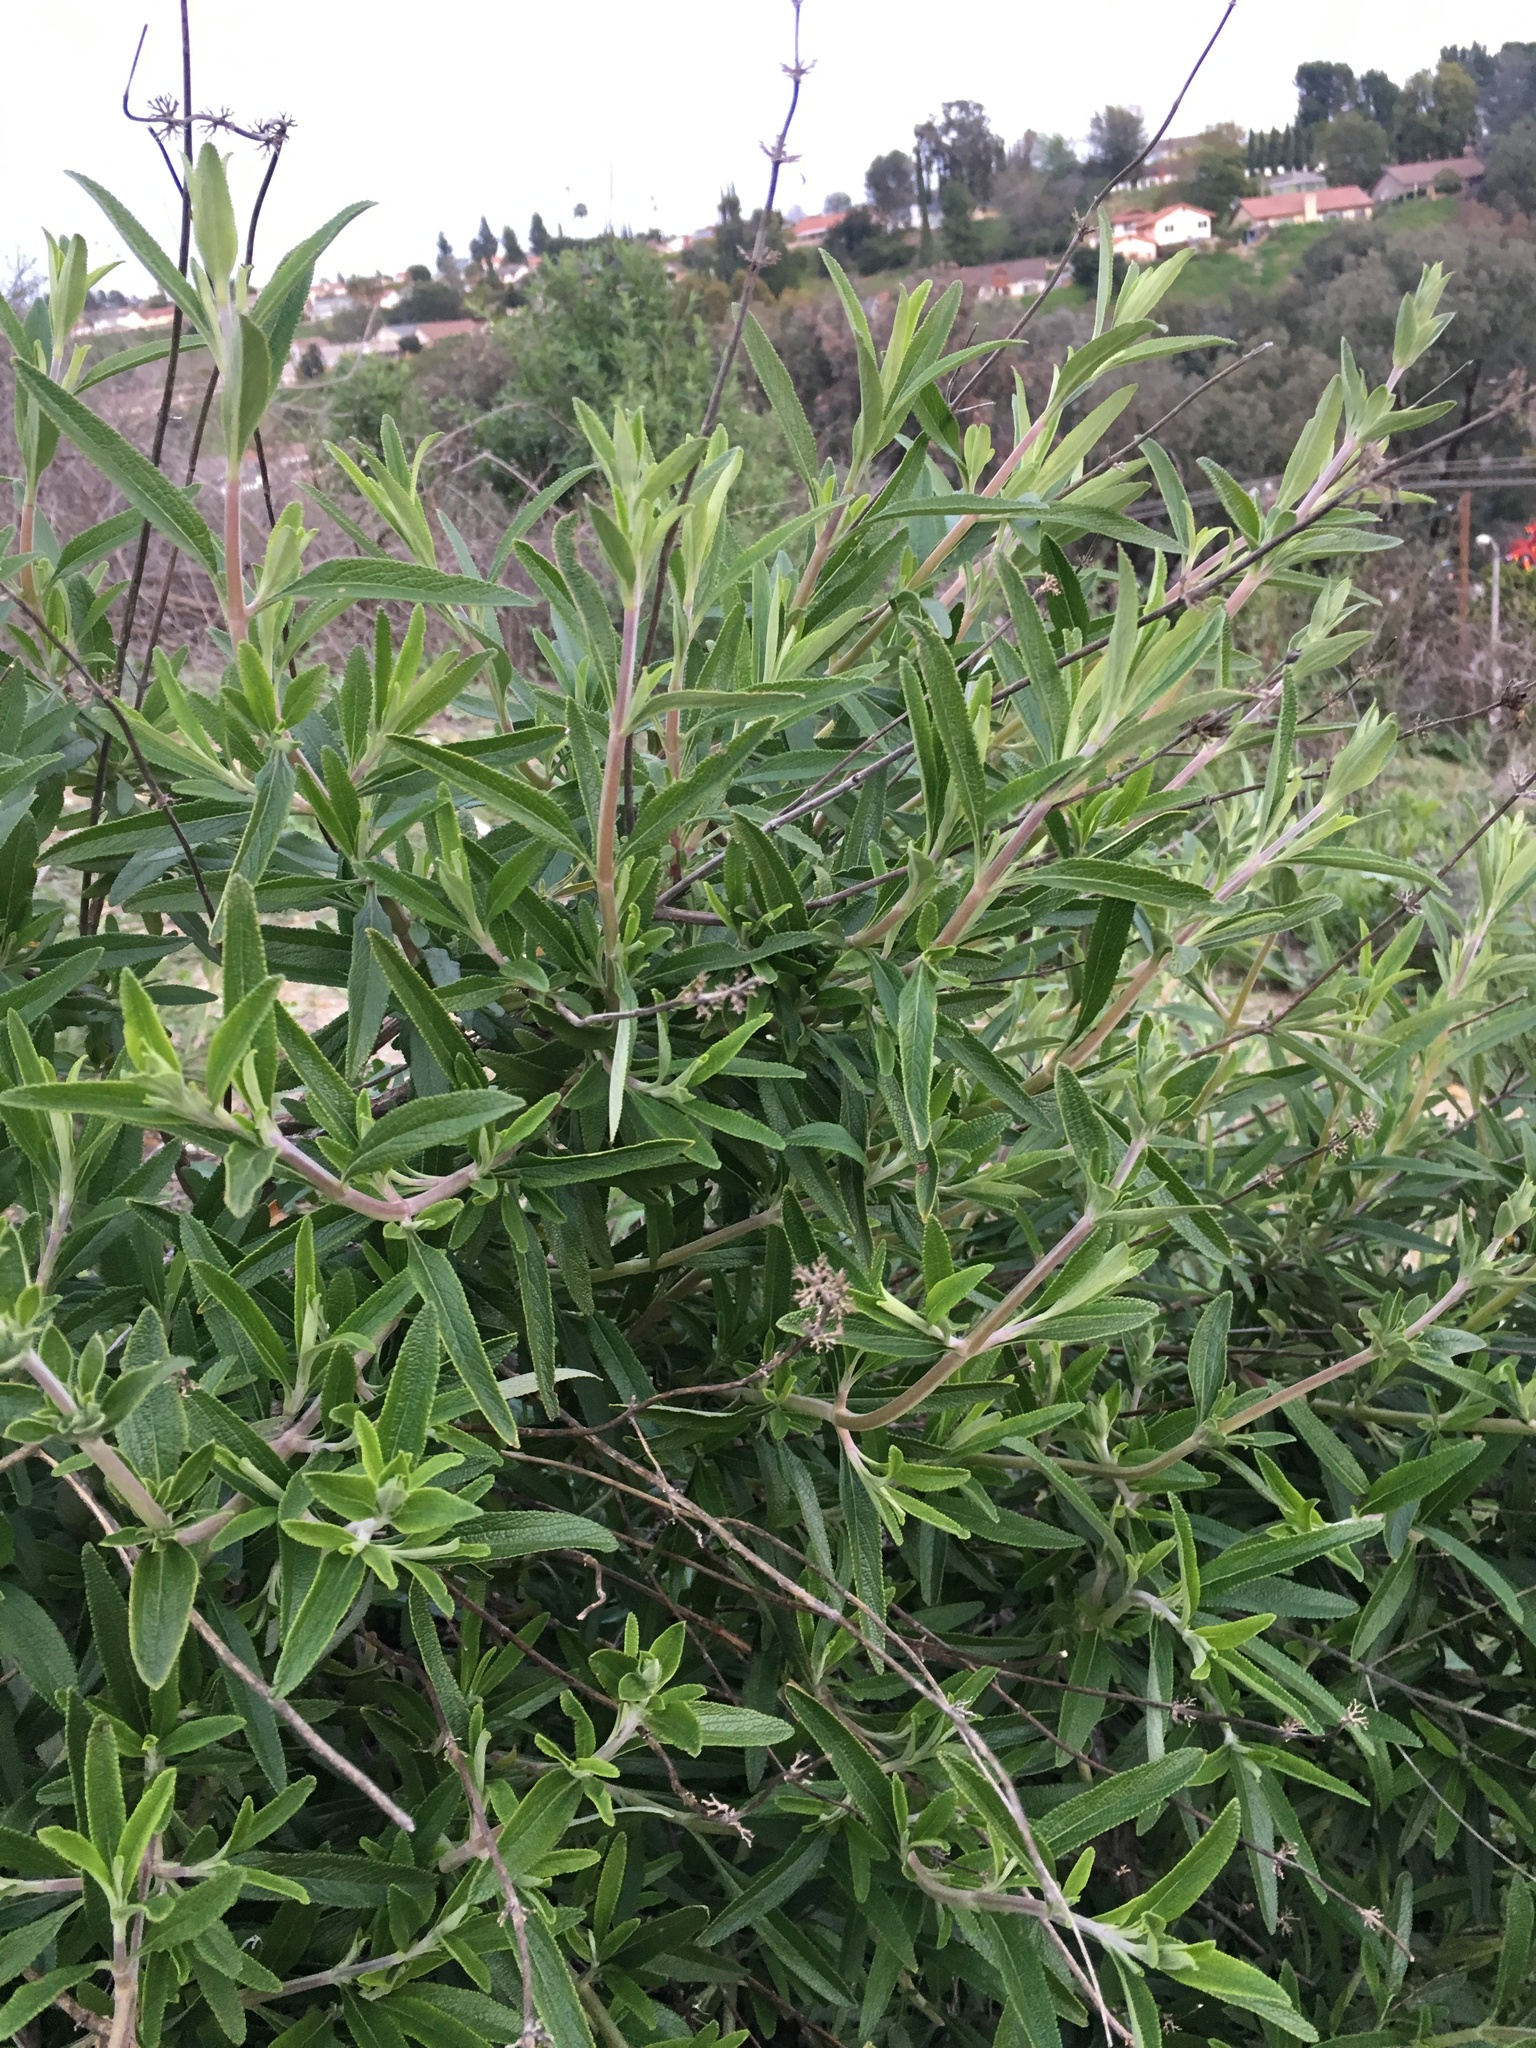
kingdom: Plantae
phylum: Tracheophyta
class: Magnoliopsida
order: Lamiales
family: Lamiaceae
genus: Salvia
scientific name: Salvia mellifera
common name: Black sage
